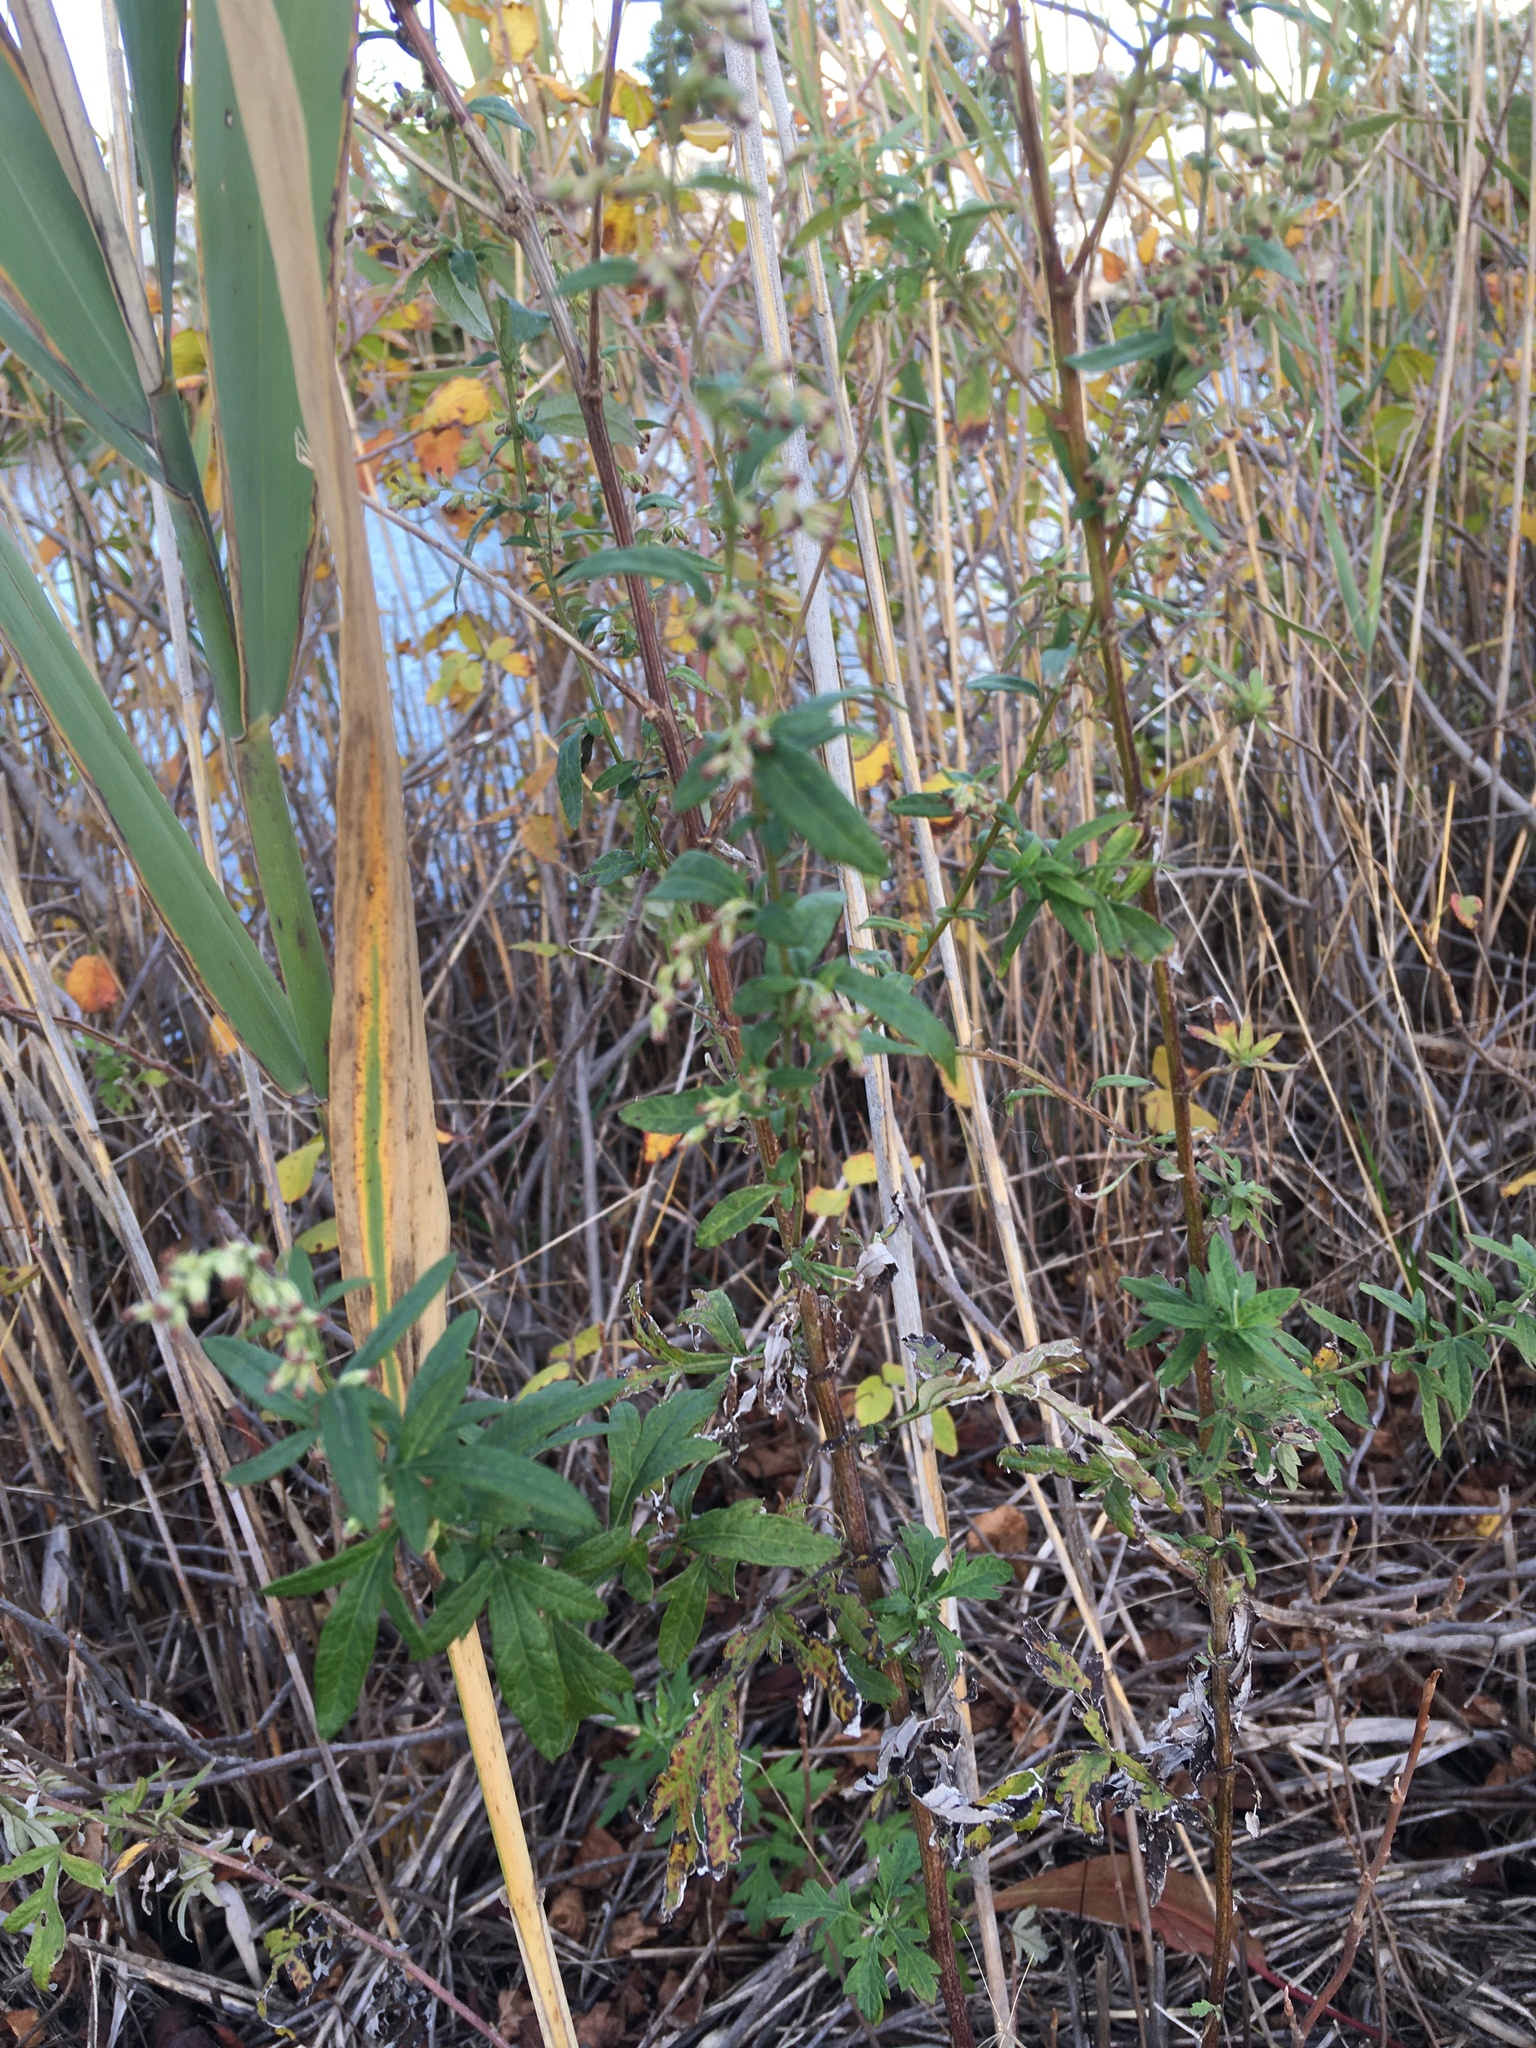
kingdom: Plantae
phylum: Tracheophyta
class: Magnoliopsida
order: Asterales
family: Asteraceae
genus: Artemisia
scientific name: Artemisia vulgaris
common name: Mugwort
